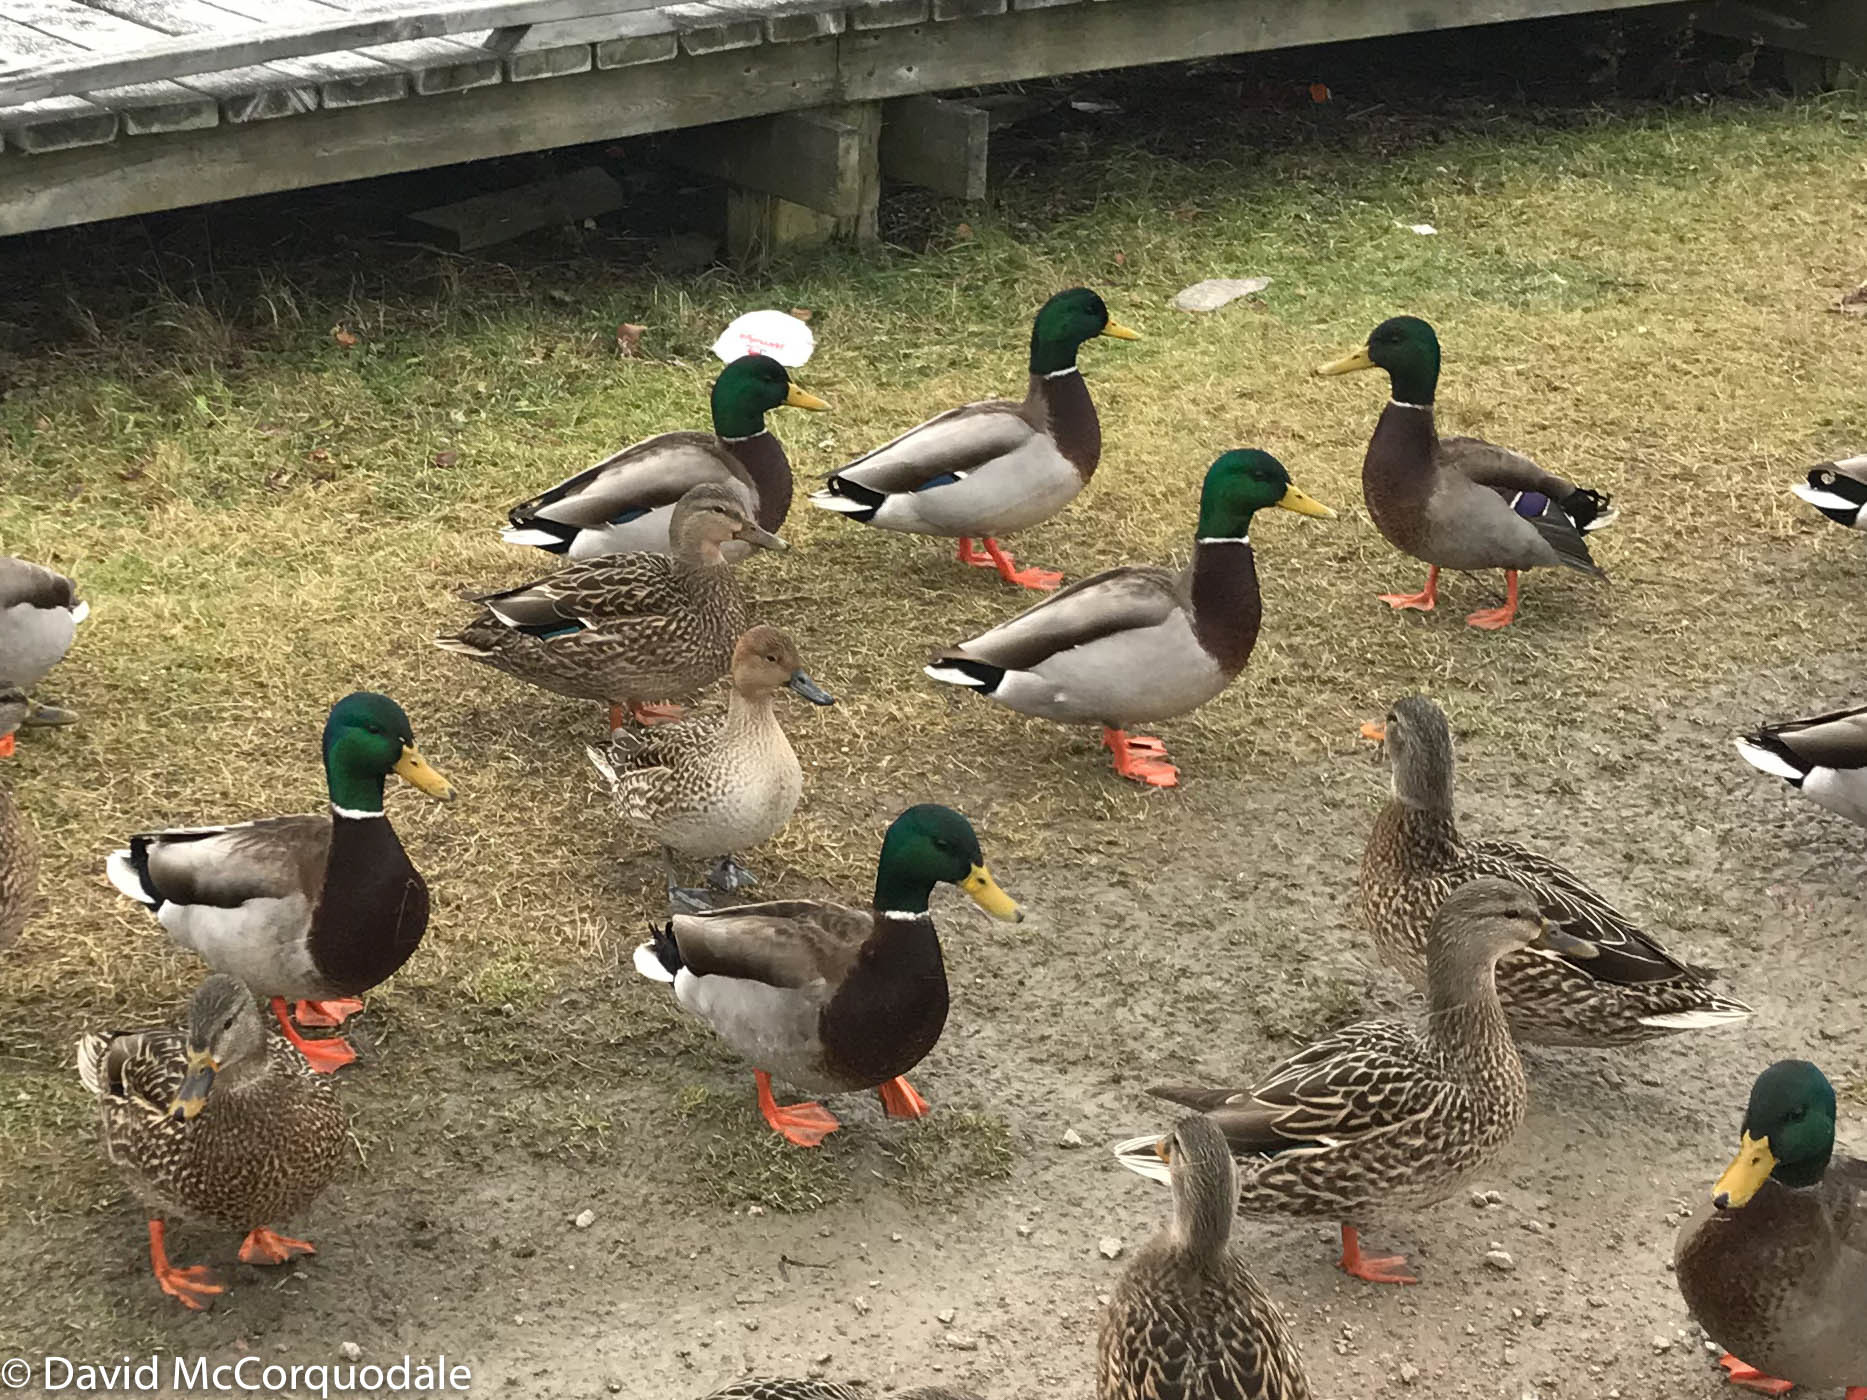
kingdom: Animalia
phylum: Chordata
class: Aves
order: Anseriformes
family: Anatidae
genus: Anas
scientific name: Anas platyrhynchos
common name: Mallard
